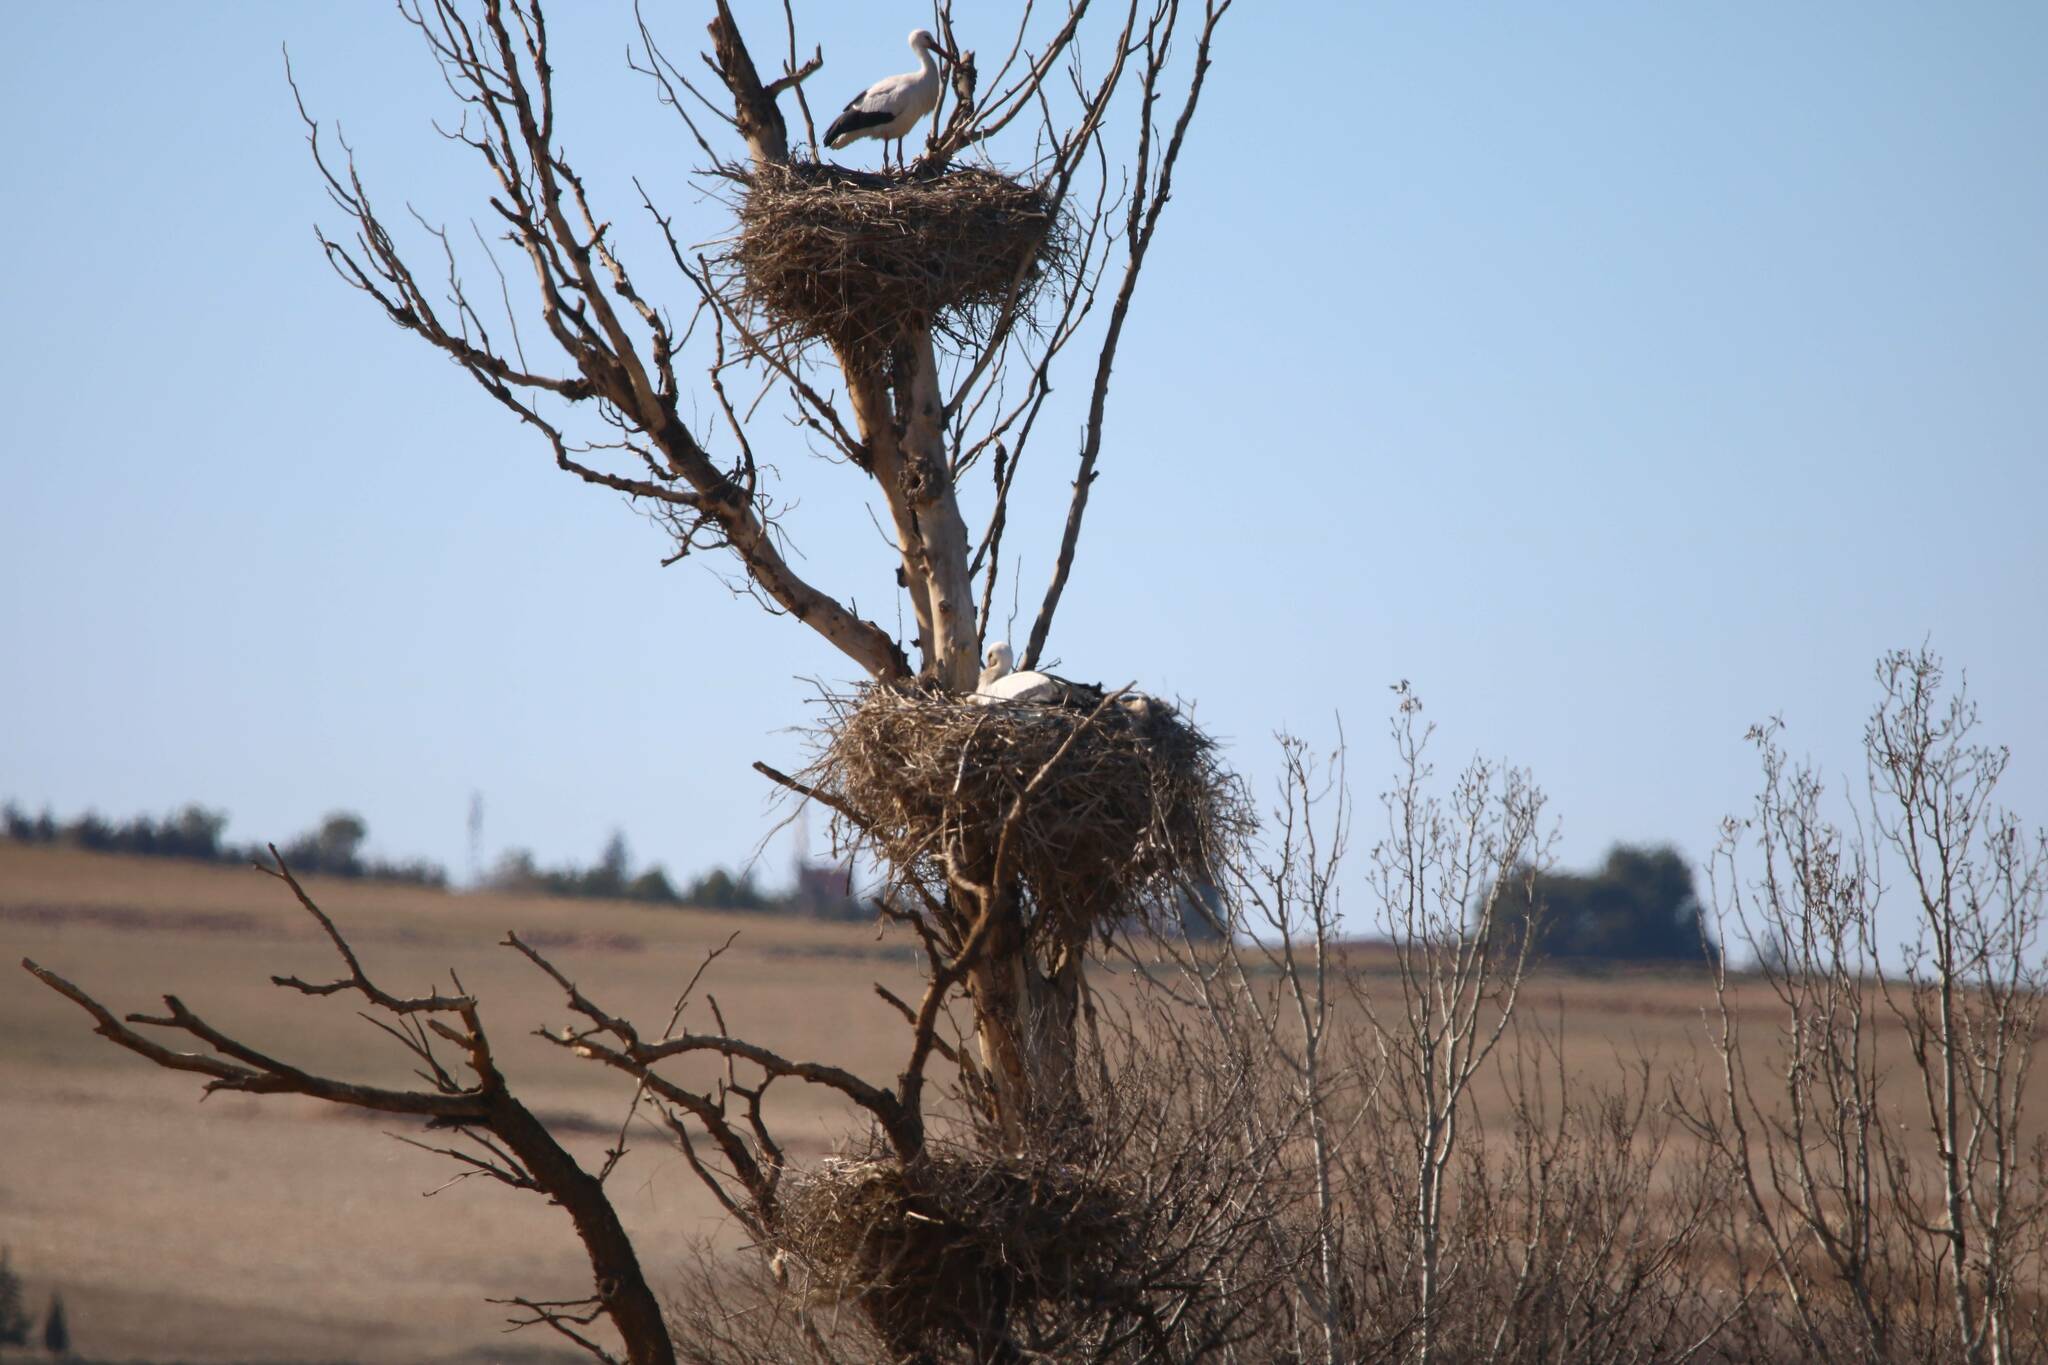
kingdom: Animalia
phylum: Chordata
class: Aves
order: Ciconiiformes
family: Ciconiidae
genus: Ciconia
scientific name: Ciconia ciconia
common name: White stork
